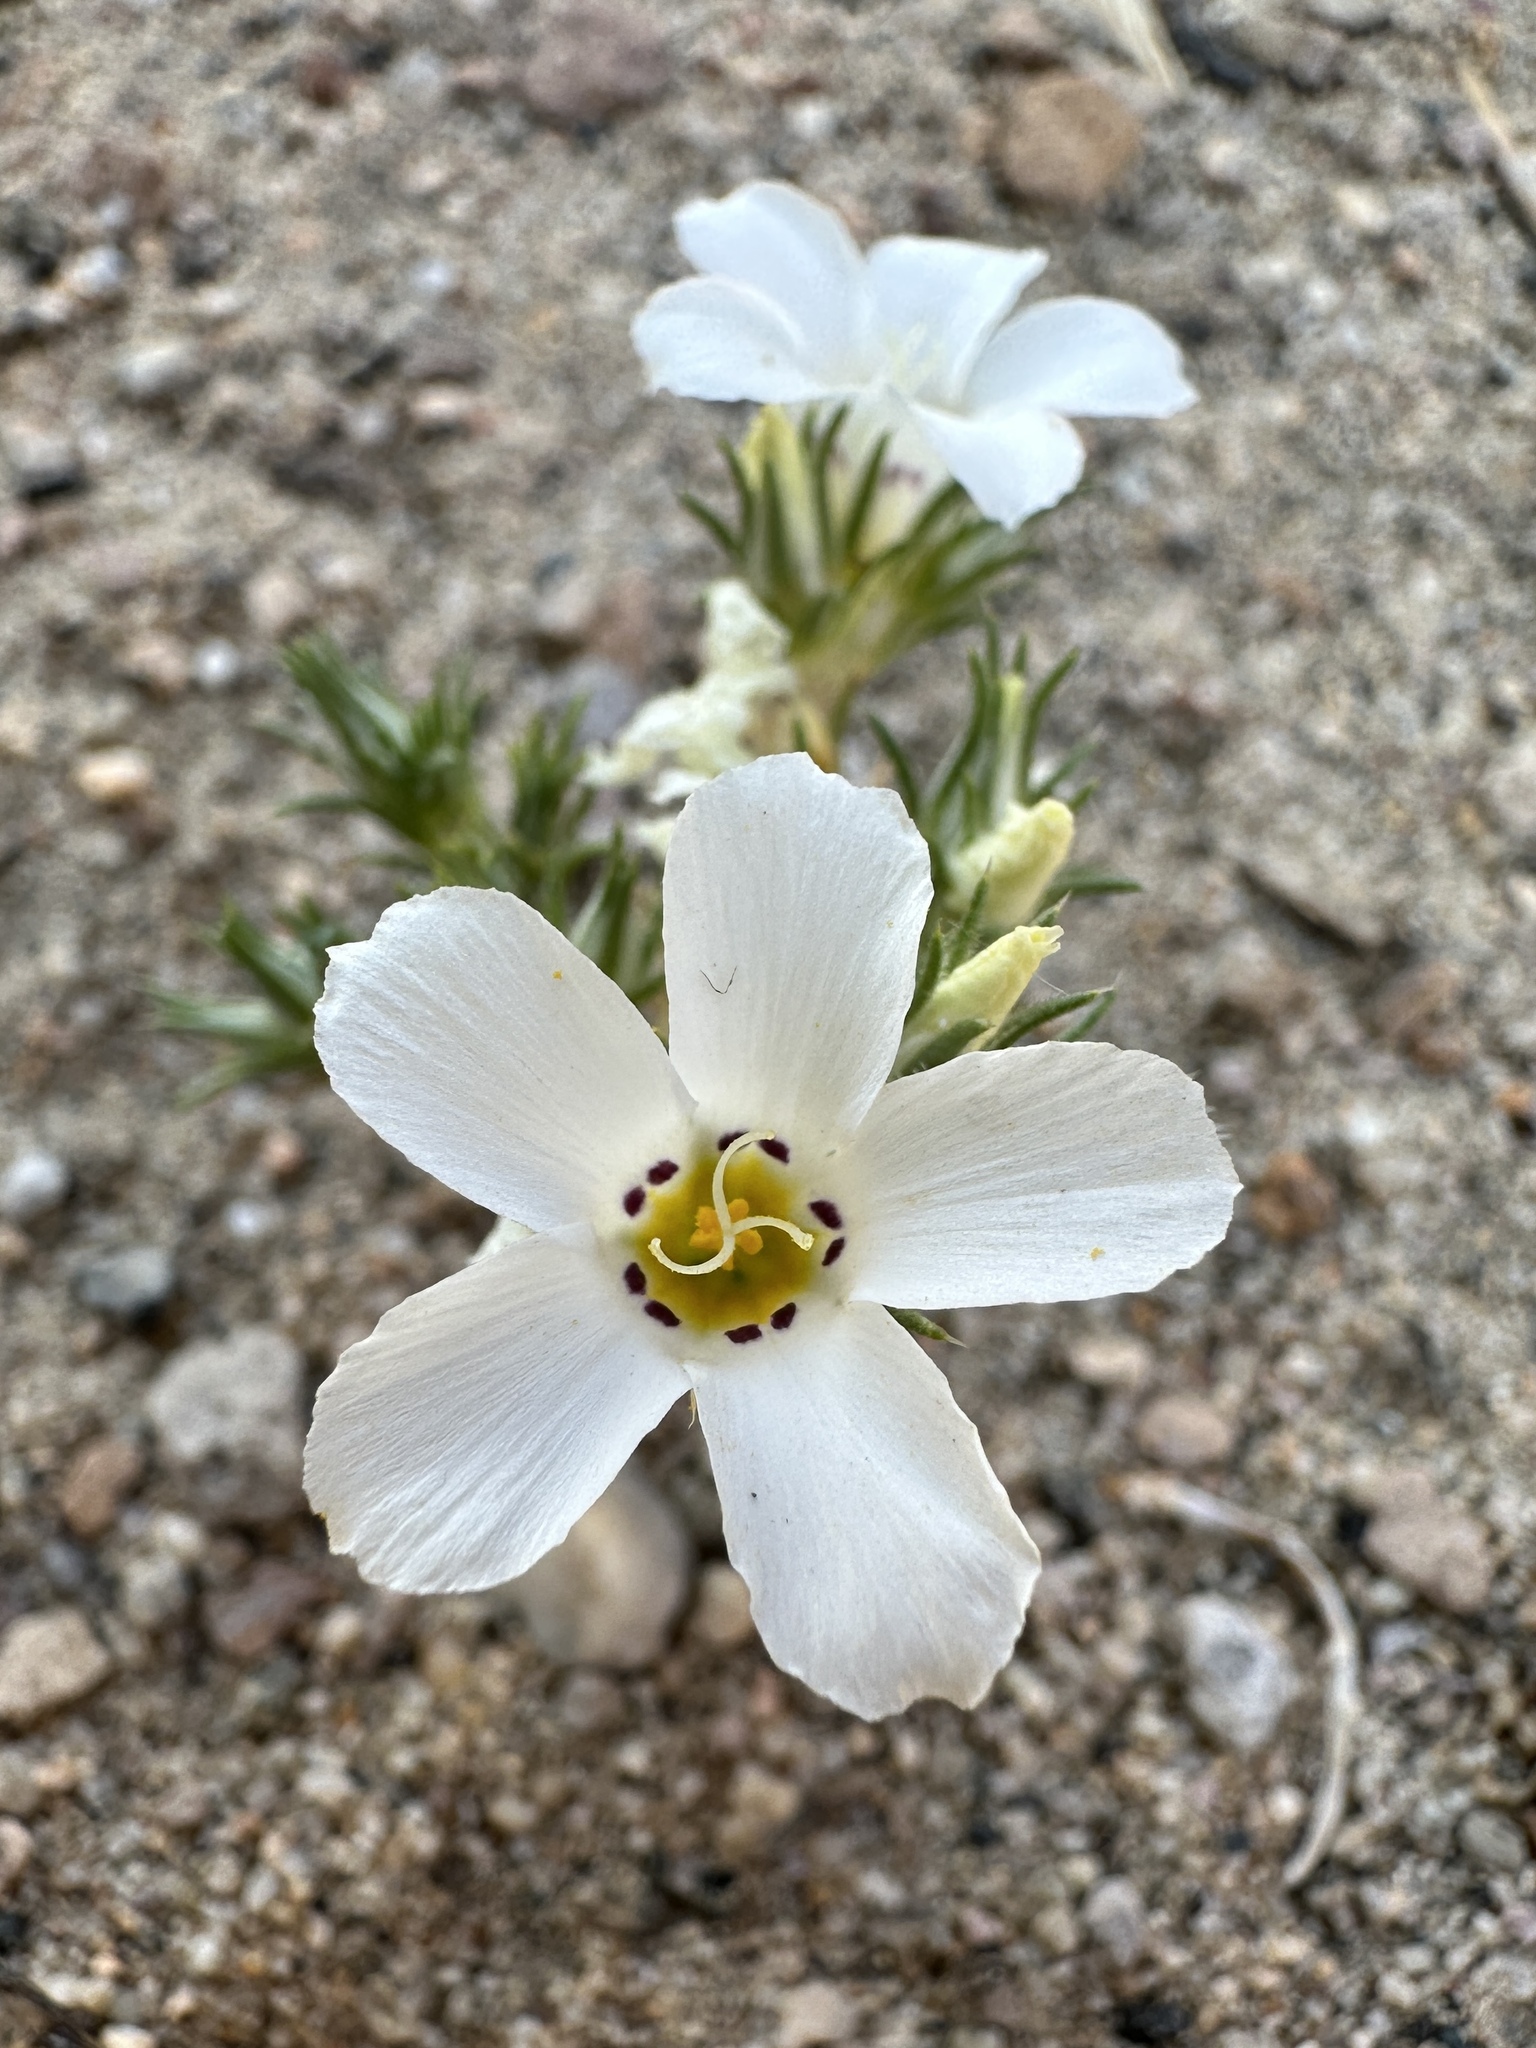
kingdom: Plantae
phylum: Tracheophyta
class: Magnoliopsida
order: Ericales
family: Polemoniaceae
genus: Linanthus
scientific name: Linanthus parryae
